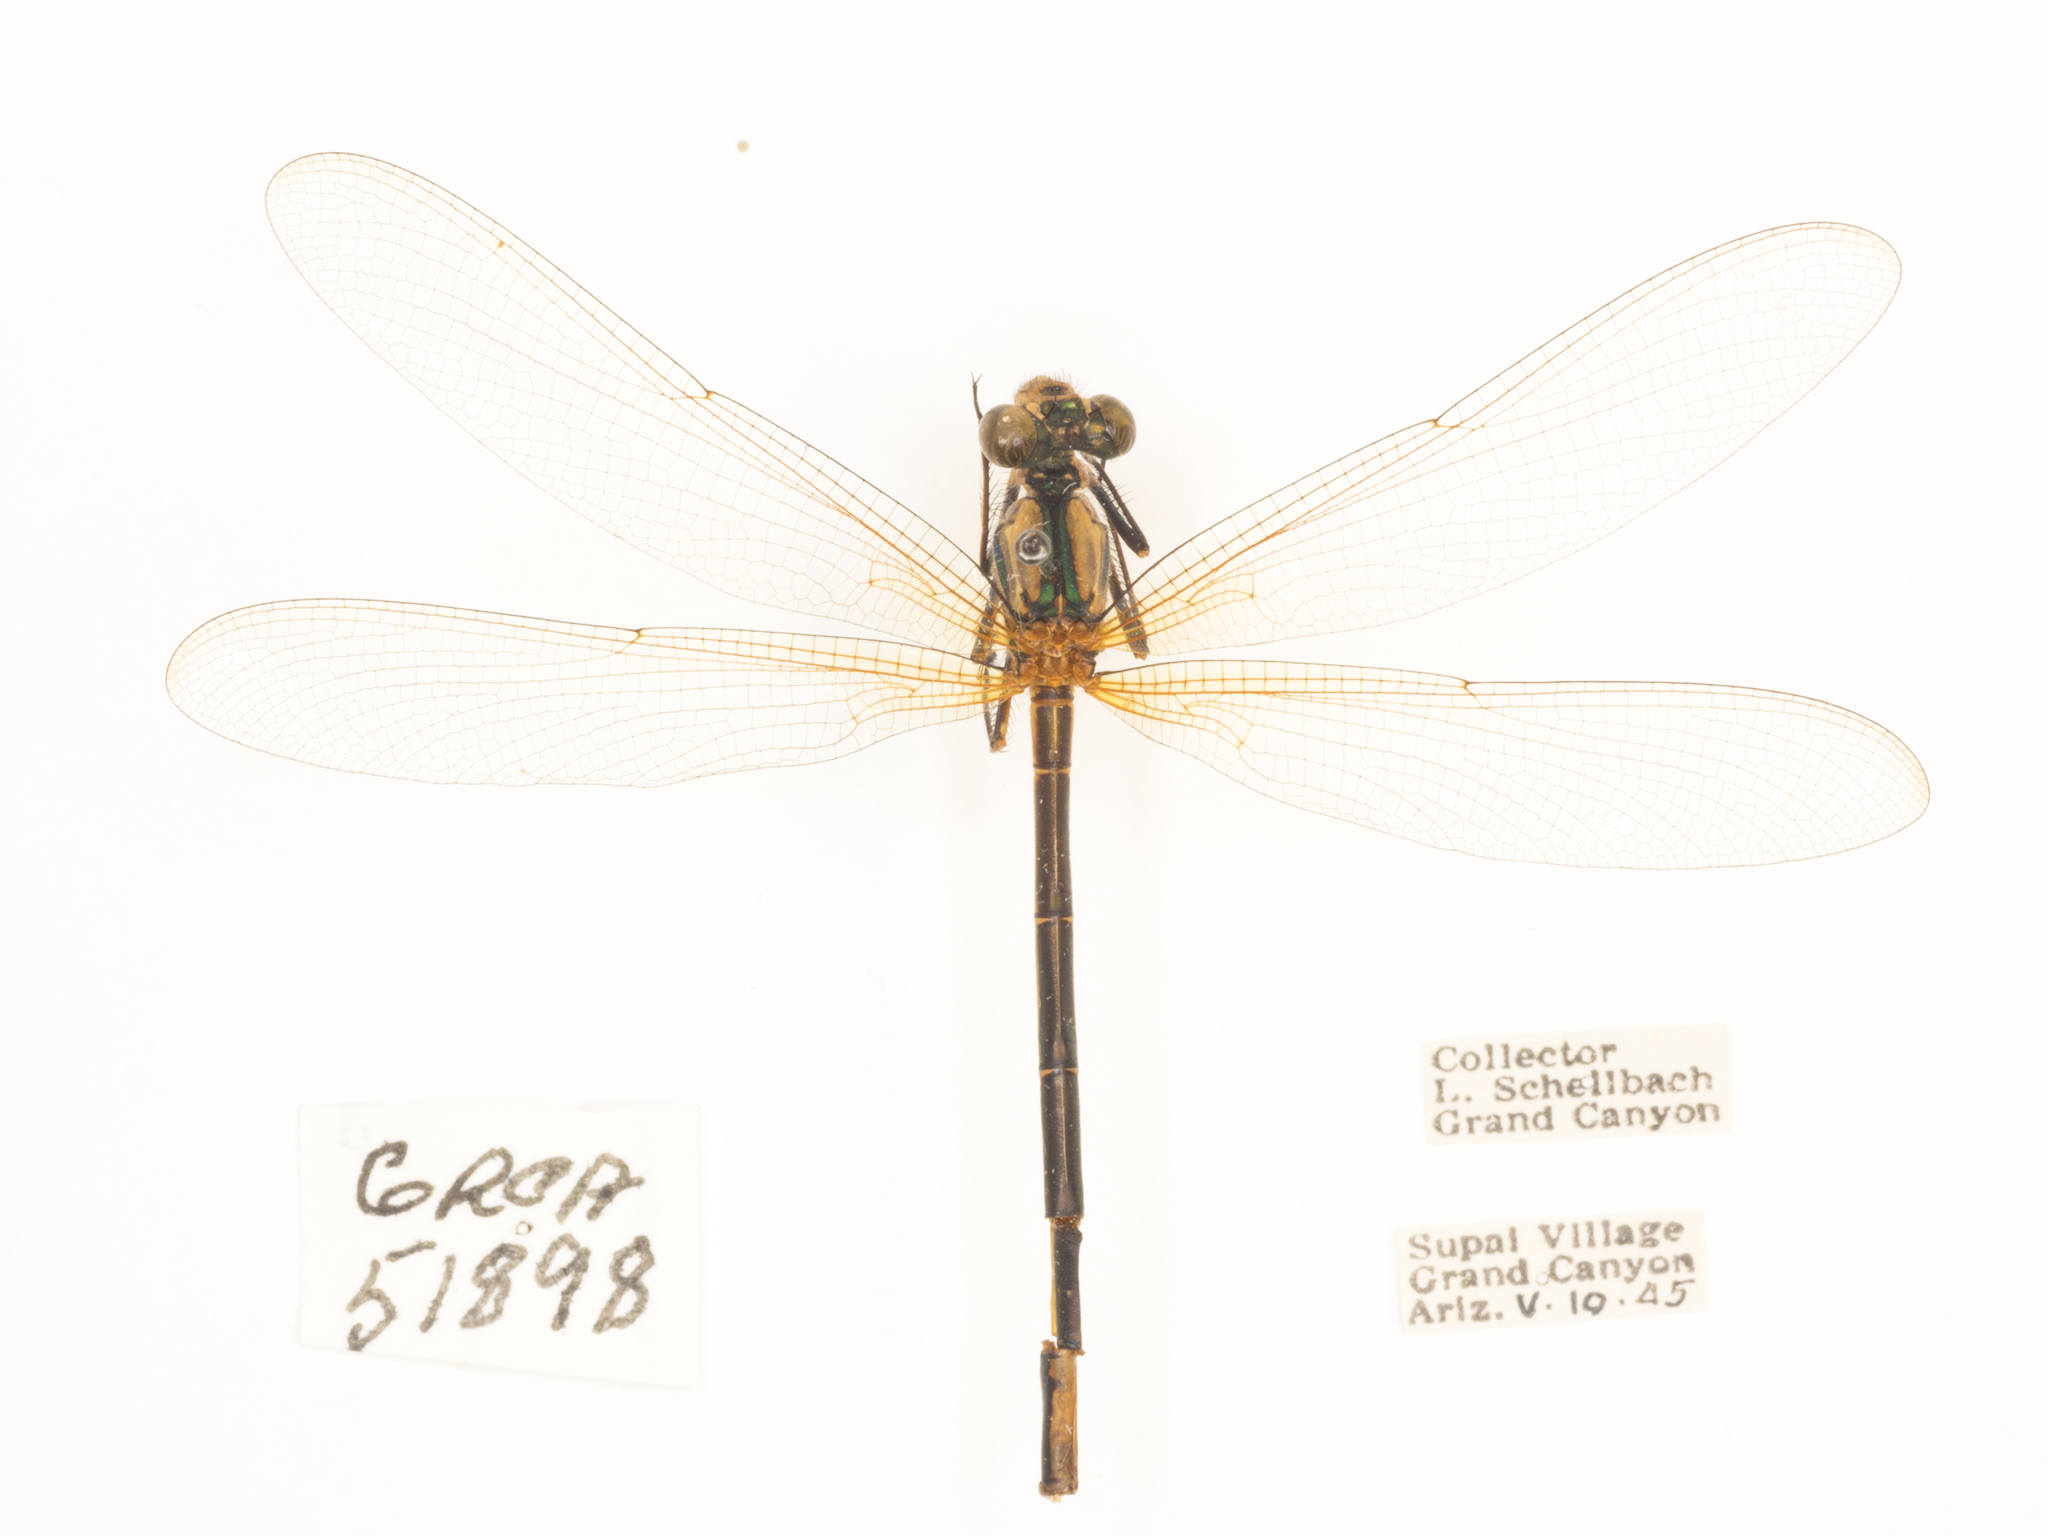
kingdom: Animalia
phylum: Arthropoda
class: Insecta
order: Odonata
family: Calopterygidae
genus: Hetaerina
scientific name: Hetaerina vulnerata
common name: Canyon rubyspot
